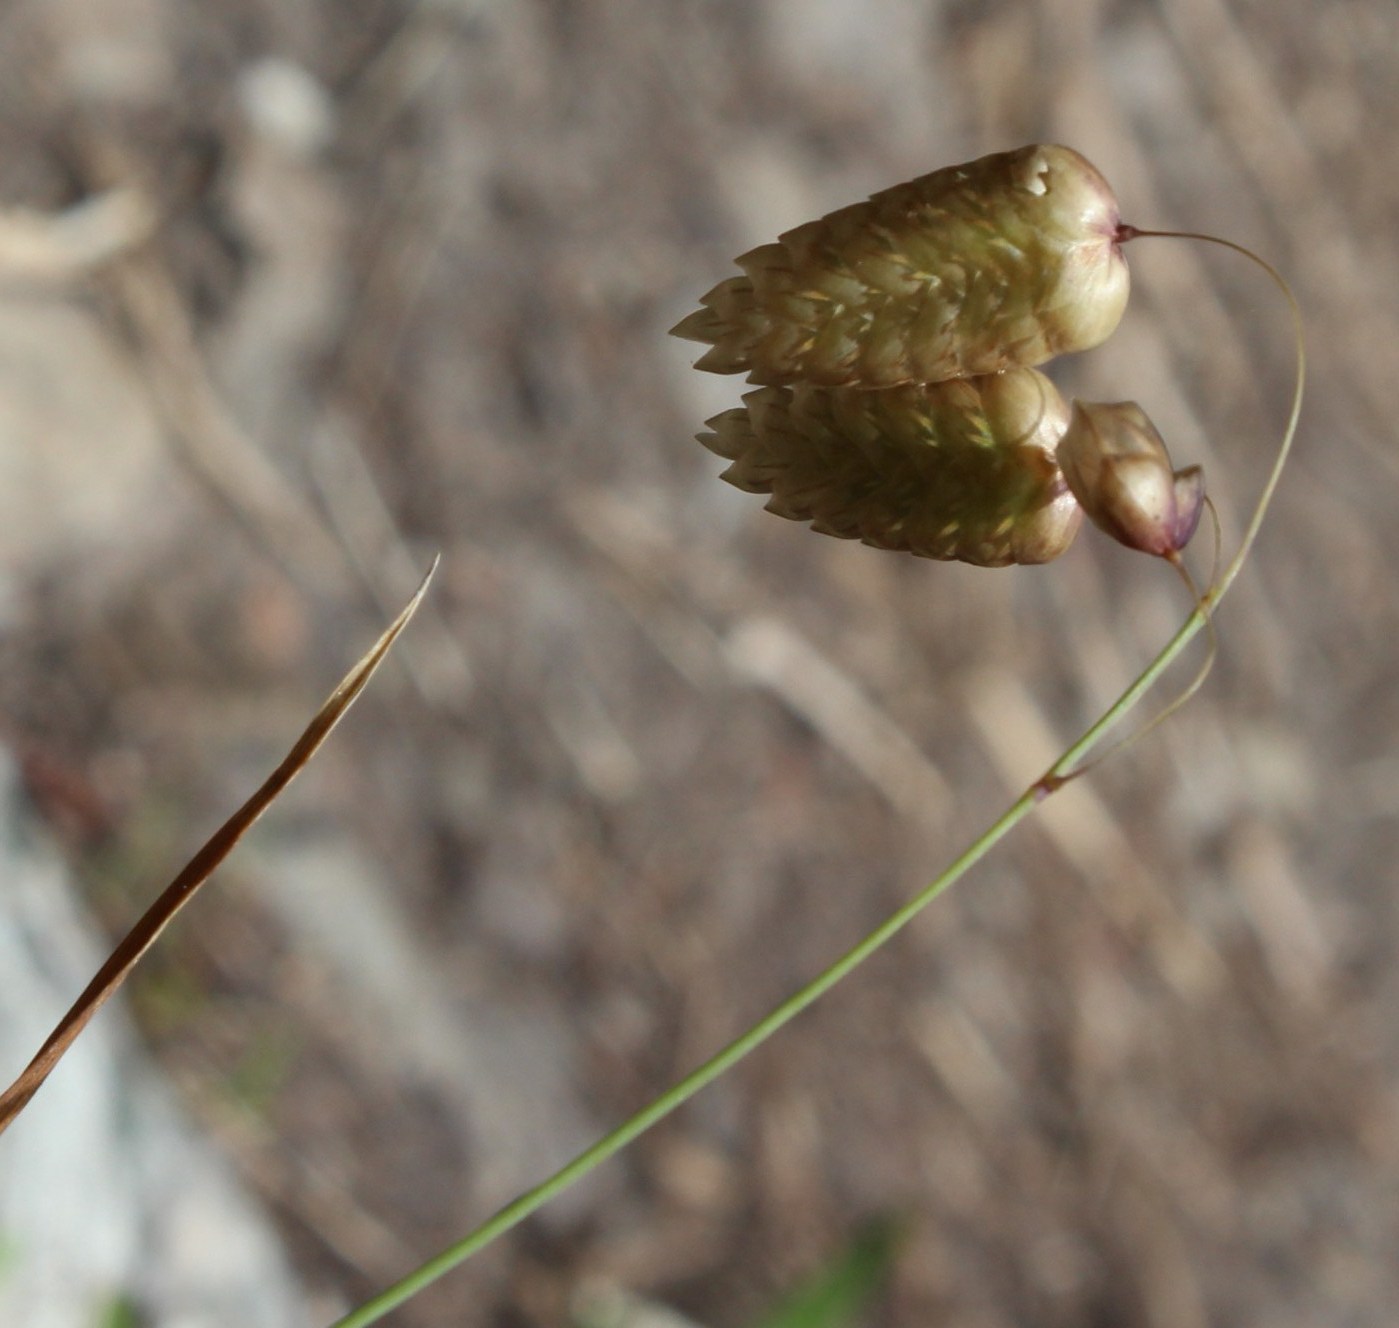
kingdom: Plantae
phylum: Tracheophyta
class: Liliopsida
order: Poales
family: Poaceae
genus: Briza
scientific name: Briza maxima
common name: Big quakinggrass
